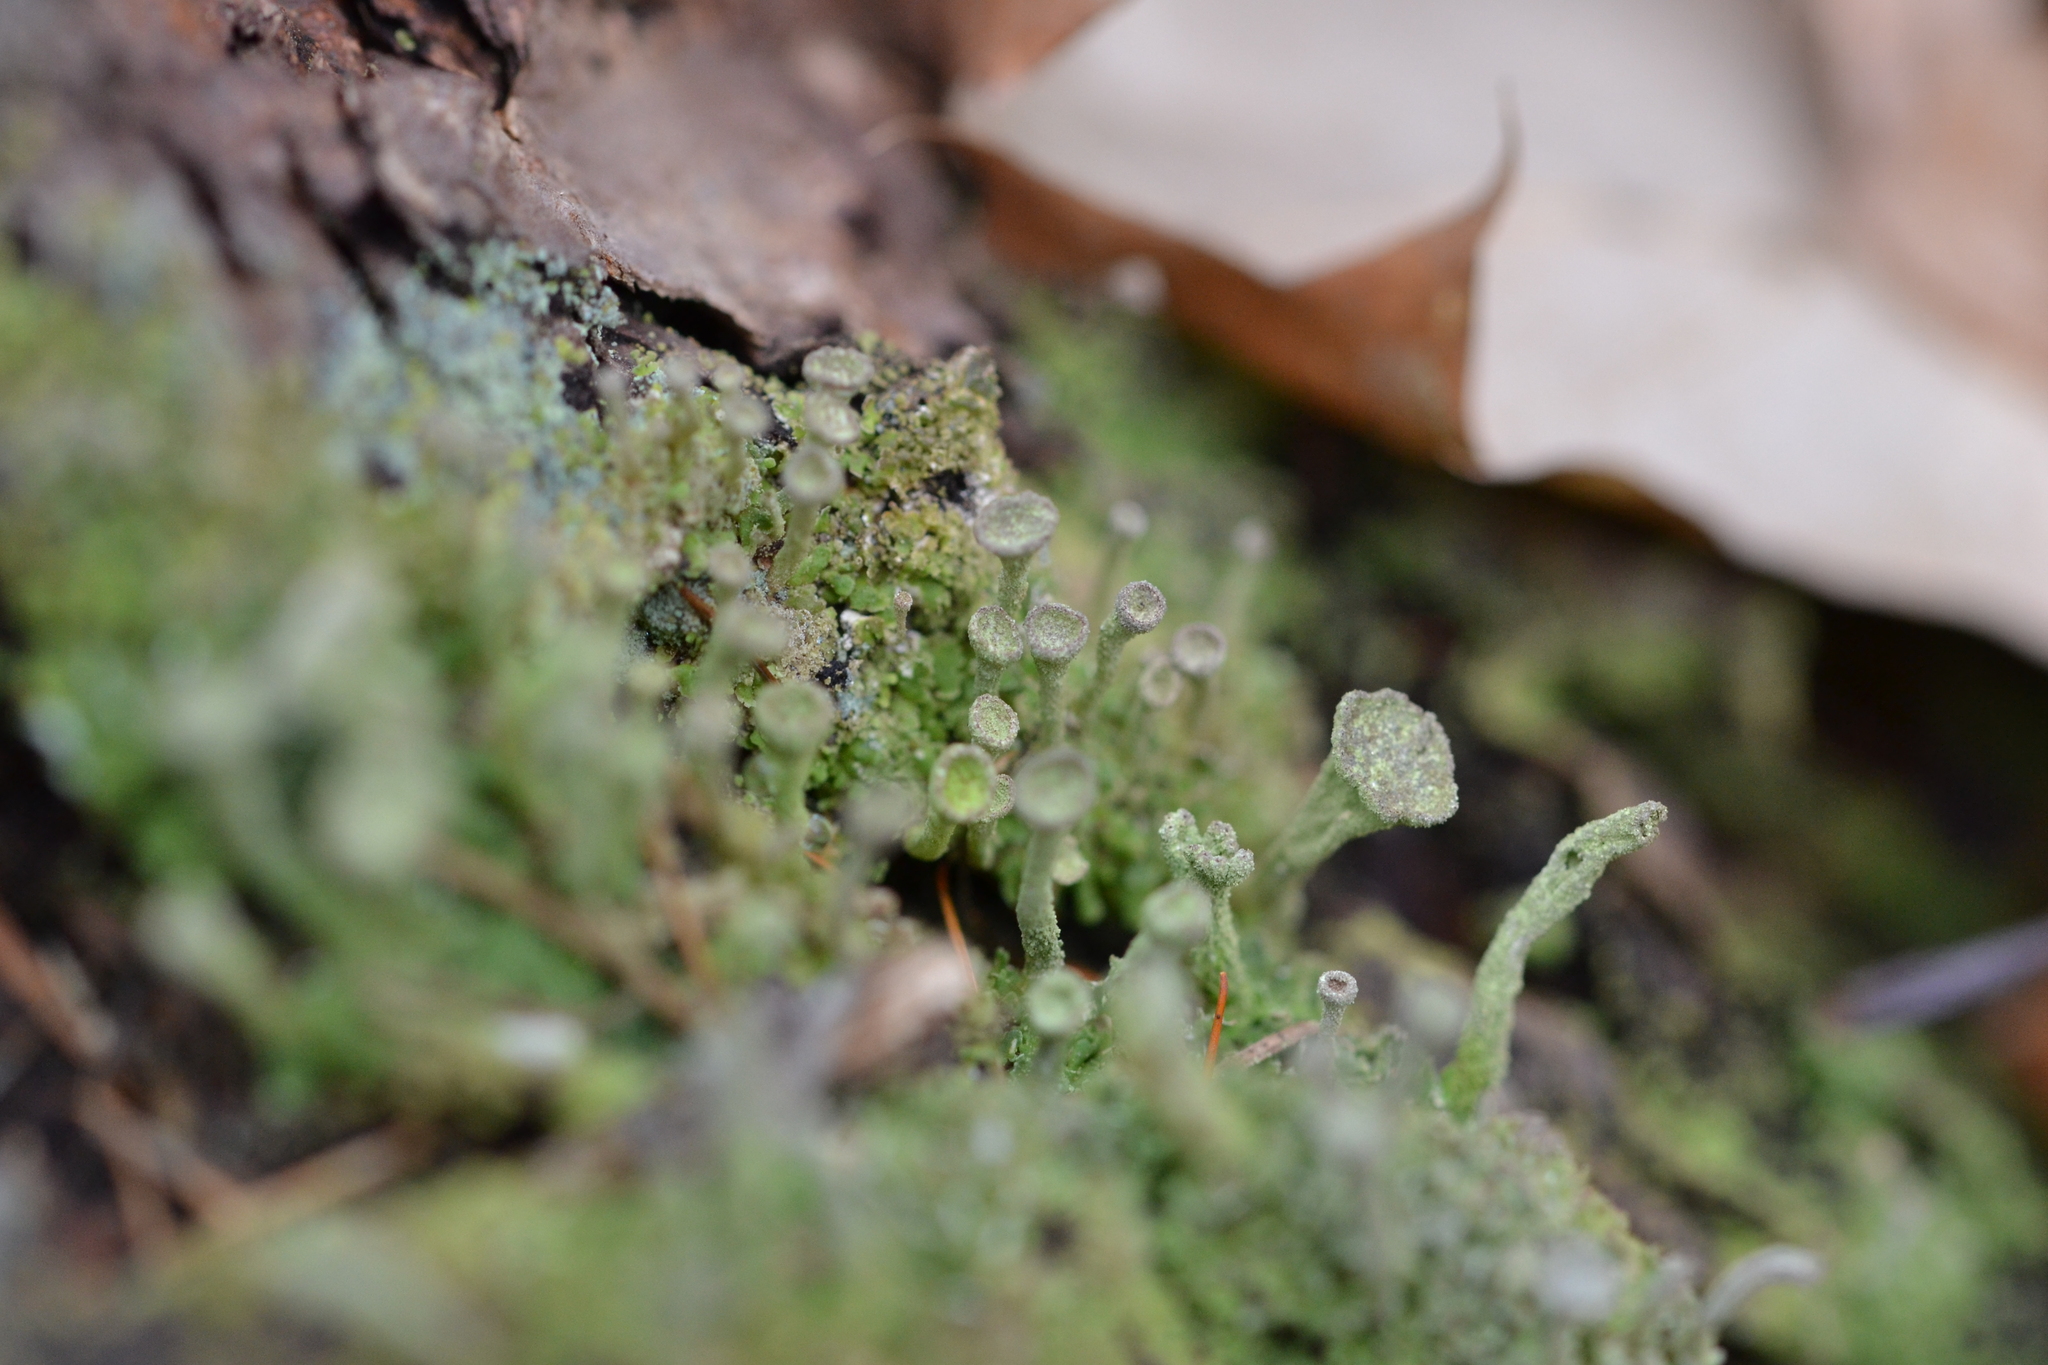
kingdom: Fungi
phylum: Ascomycota
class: Lecanoromycetes
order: Lecanorales
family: Cladoniaceae
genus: Cladonia
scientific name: Cladonia fimbriata
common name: Powdered trumpet lichen
